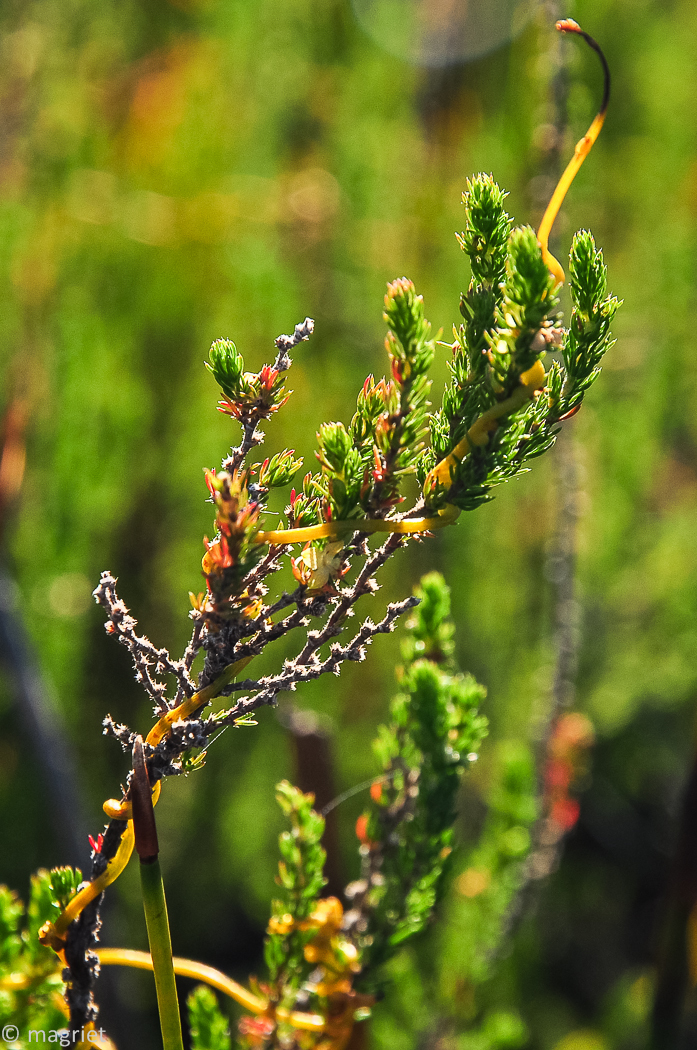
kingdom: Plantae
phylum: Tracheophyta
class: Magnoliopsida
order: Laurales
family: Lauraceae
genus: Cassytha
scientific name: Cassytha ciliolata
